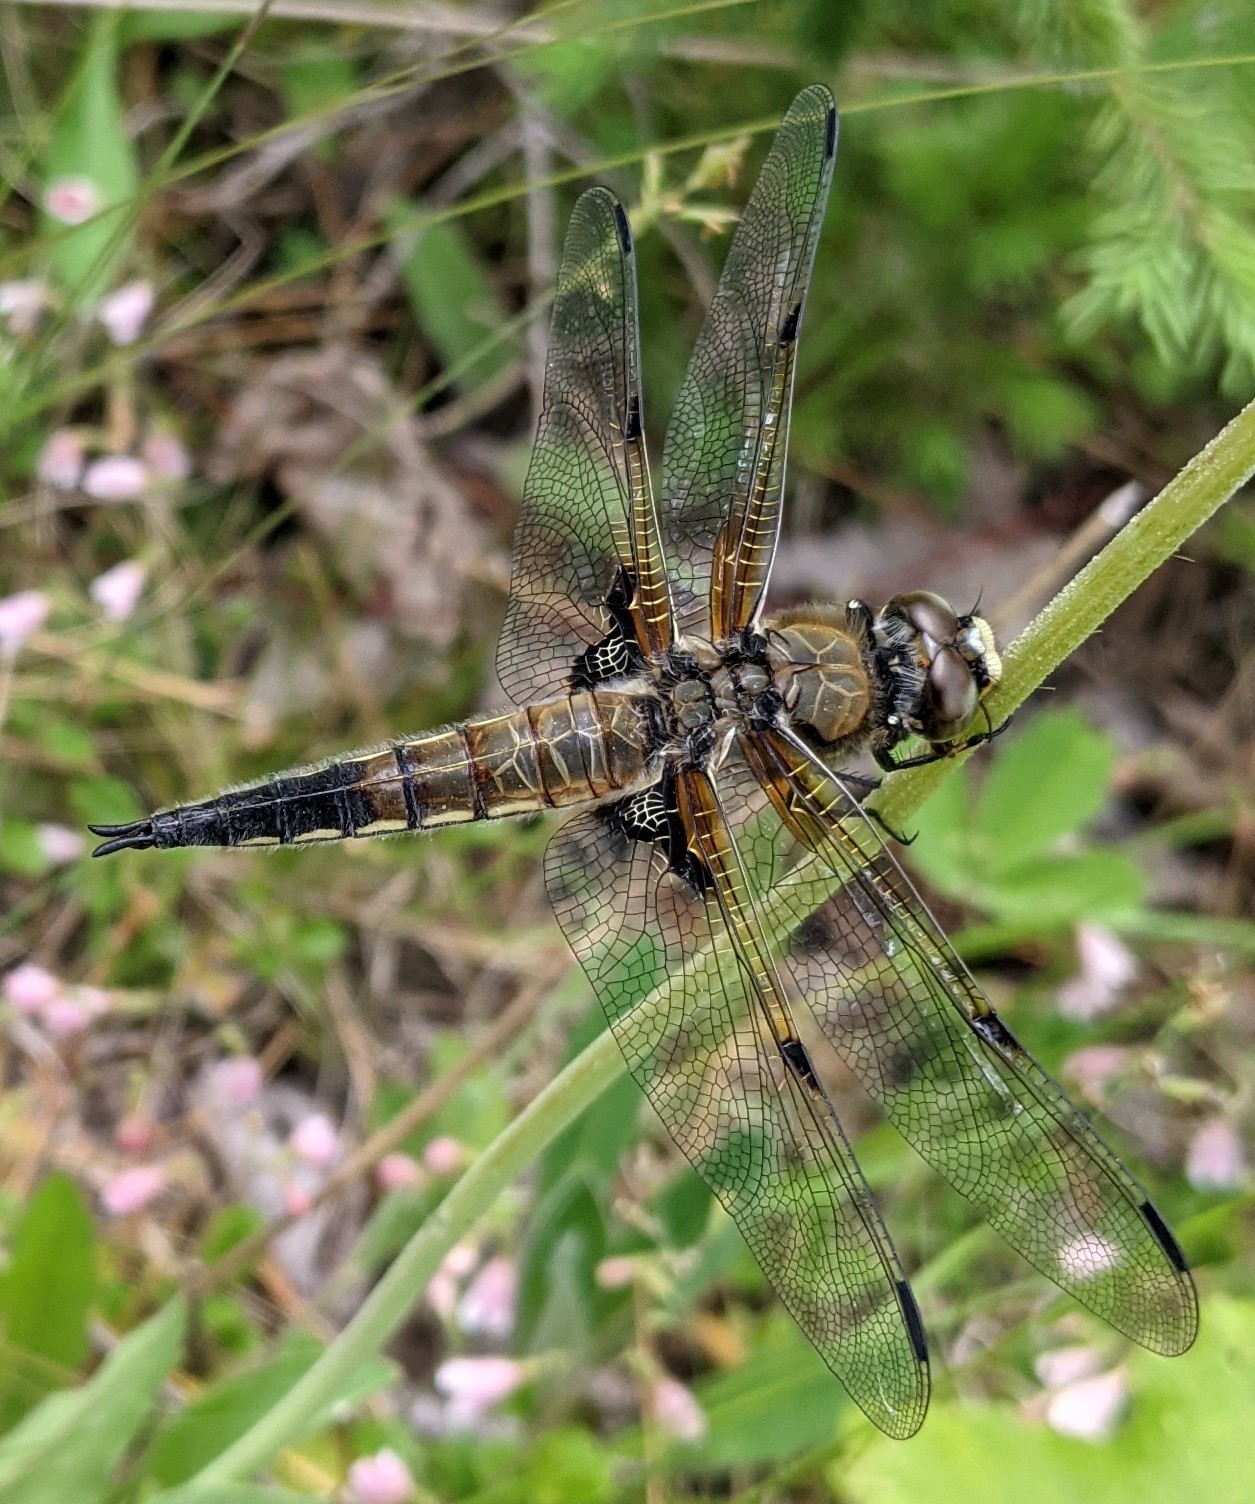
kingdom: Animalia
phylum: Arthropoda
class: Insecta
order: Odonata
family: Libellulidae
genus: Libellula
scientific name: Libellula quadrimaculata
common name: Four-spotted chaser
